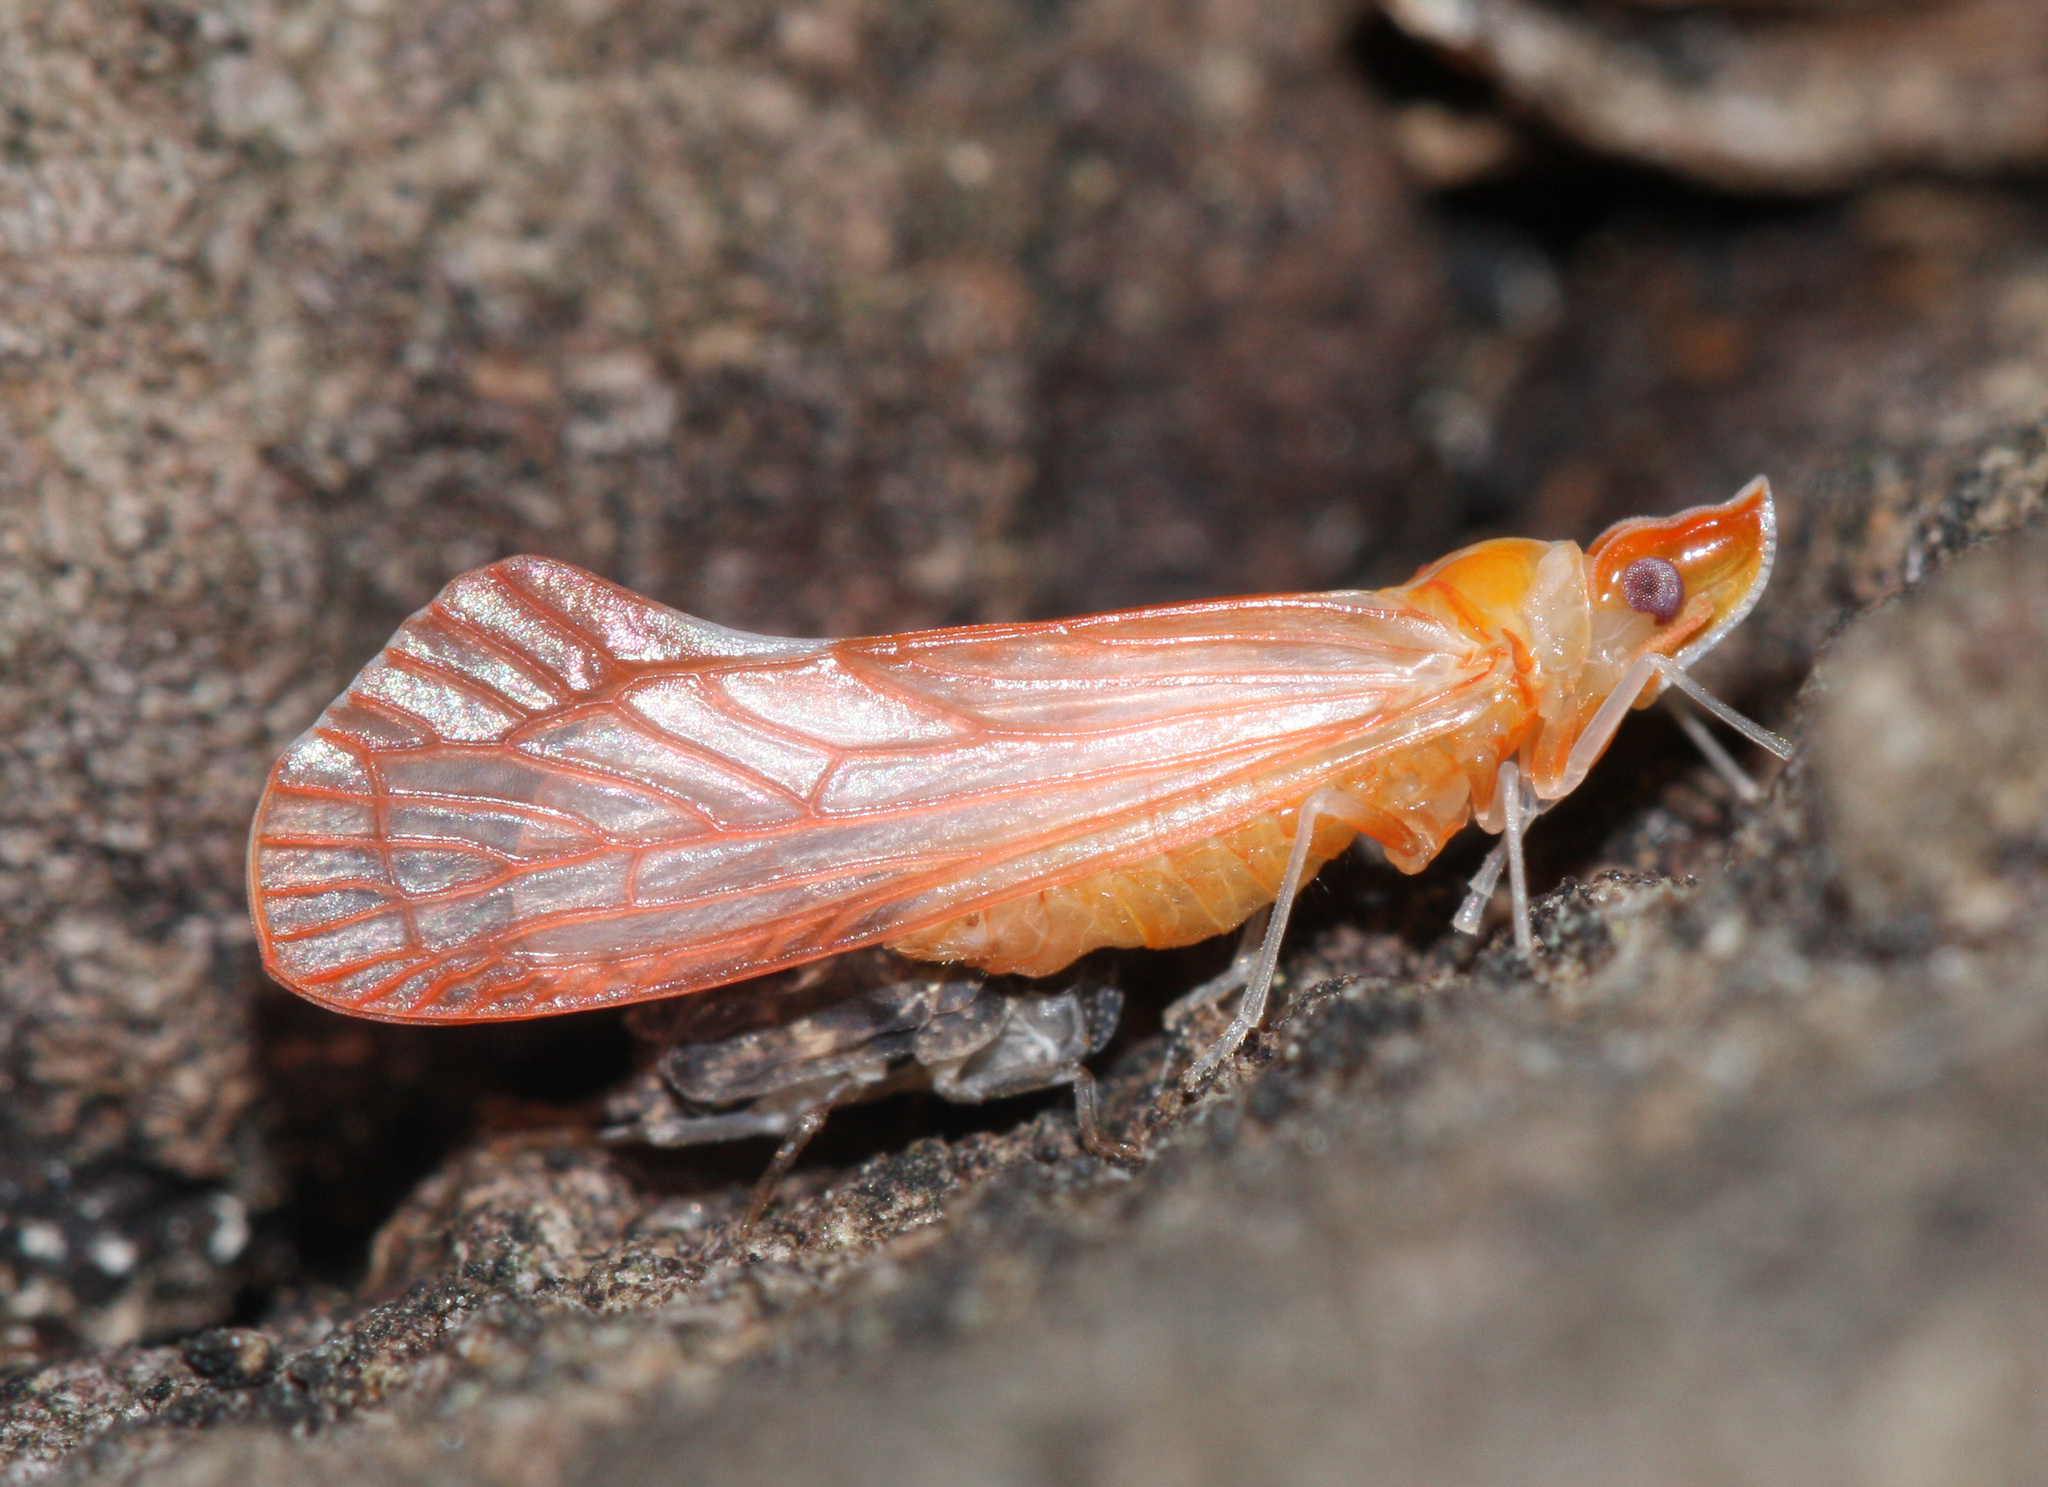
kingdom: Animalia
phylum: Arthropoda
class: Insecta
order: Hemiptera
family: Derbidae
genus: Apache
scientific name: Apache degeeri
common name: Red-fanned planthopper
